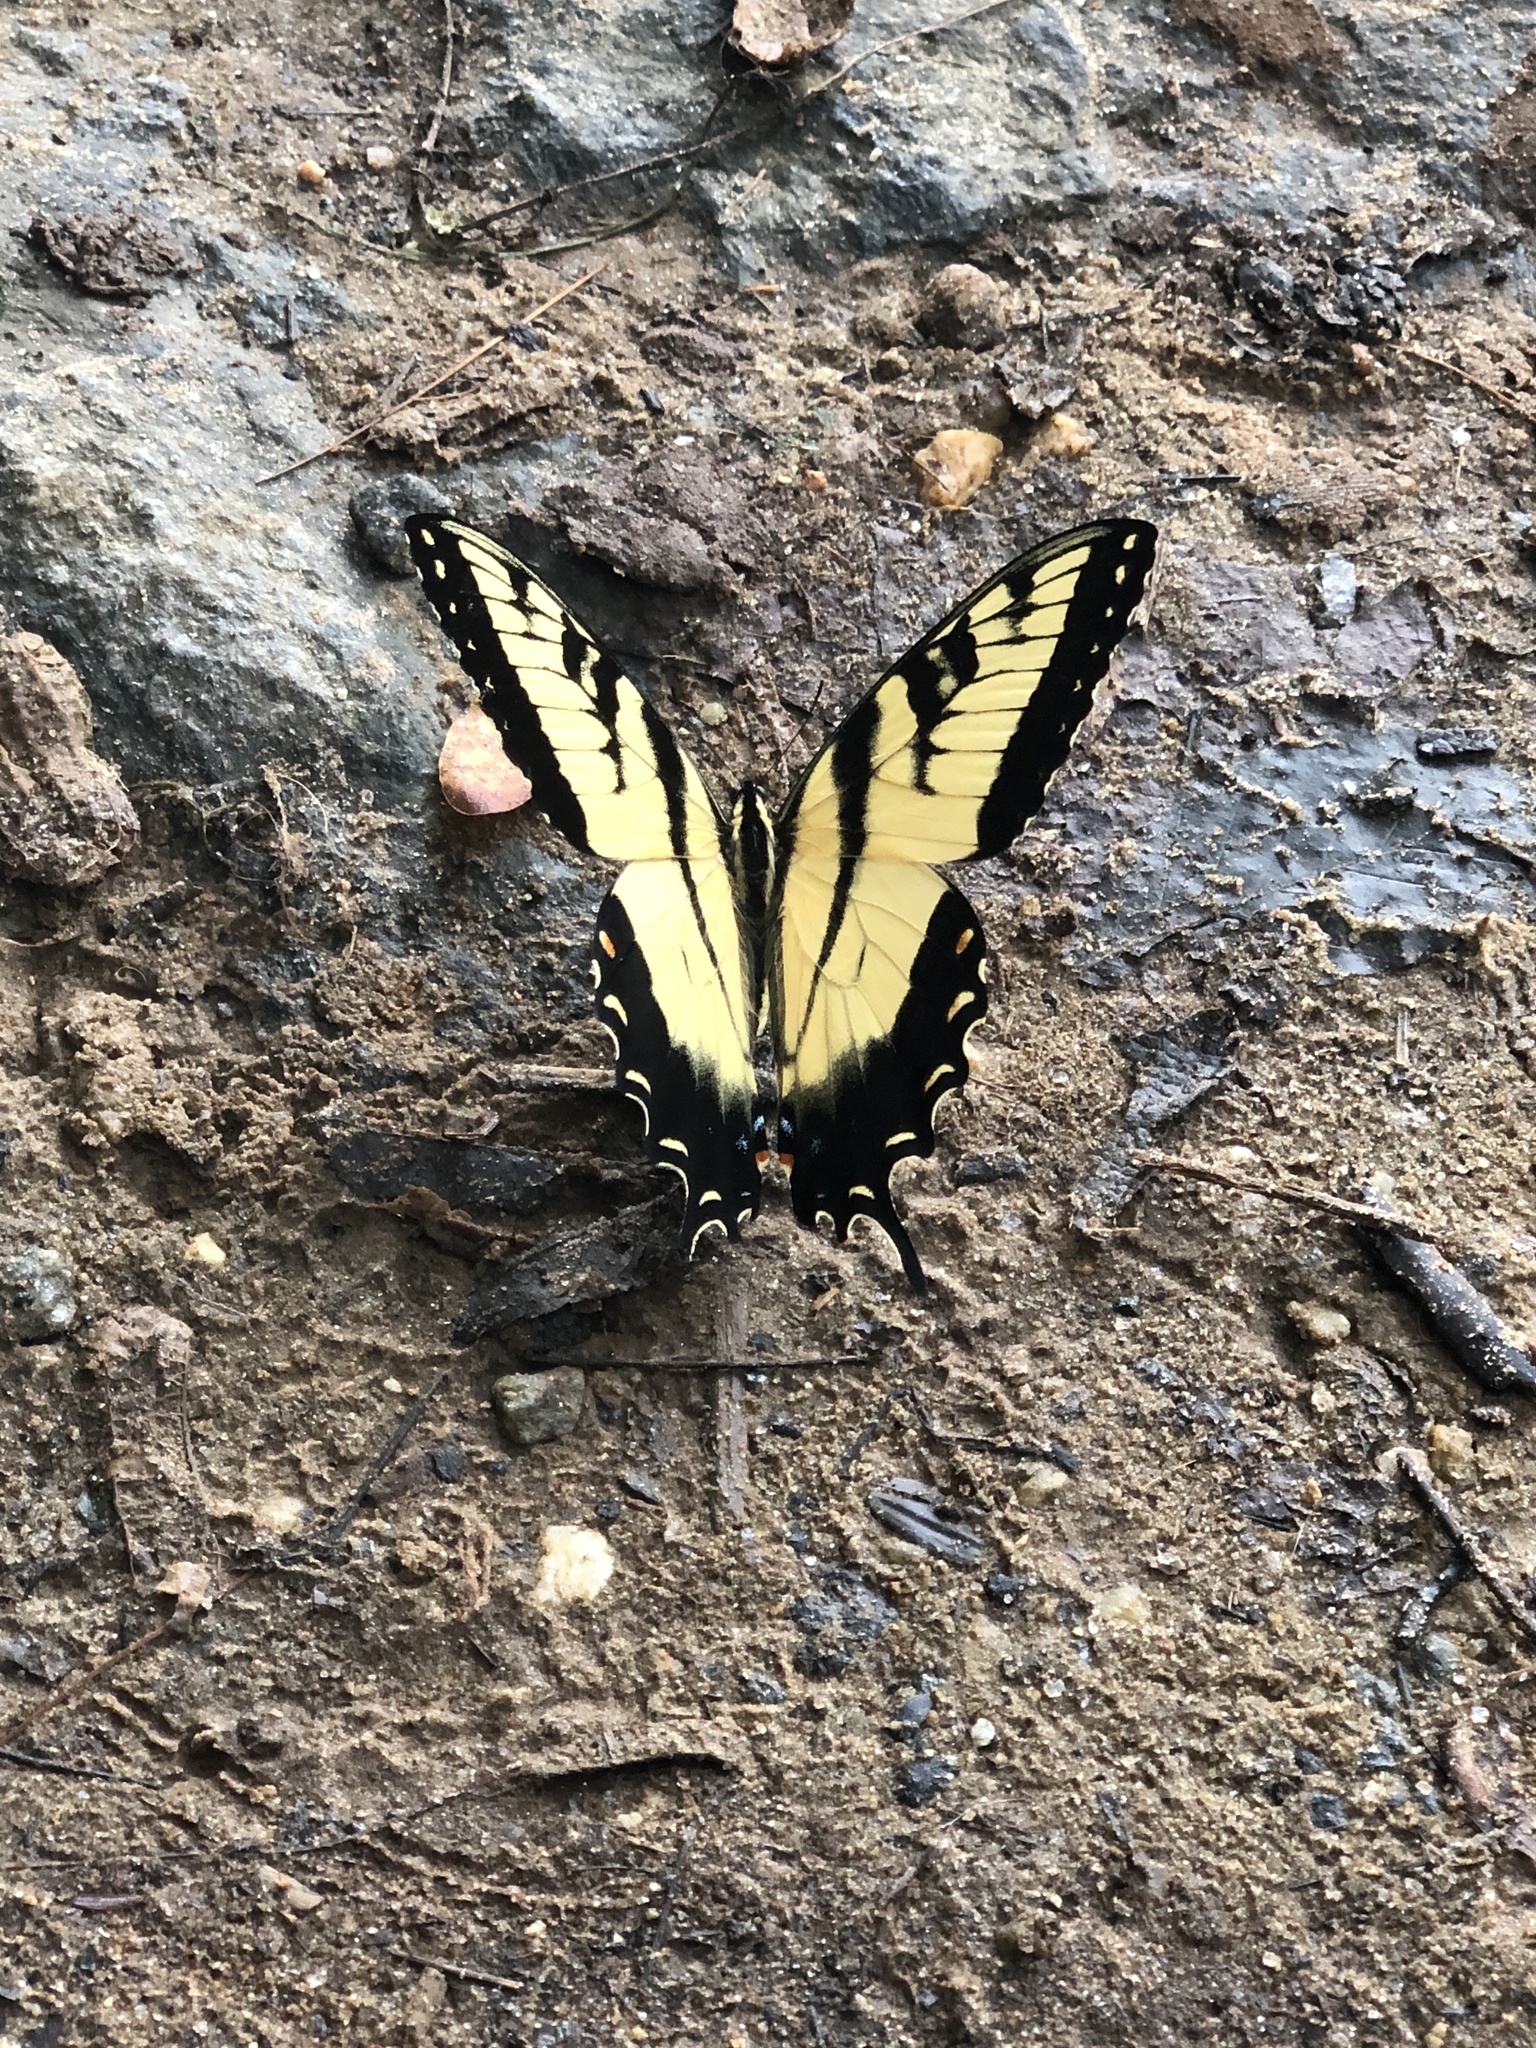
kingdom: Animalia
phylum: Arthropoda
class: Insecta
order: Lepidoptera
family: Papilionidae
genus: Papilio
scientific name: Papilio glaucus
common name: Tiger swallowtail
